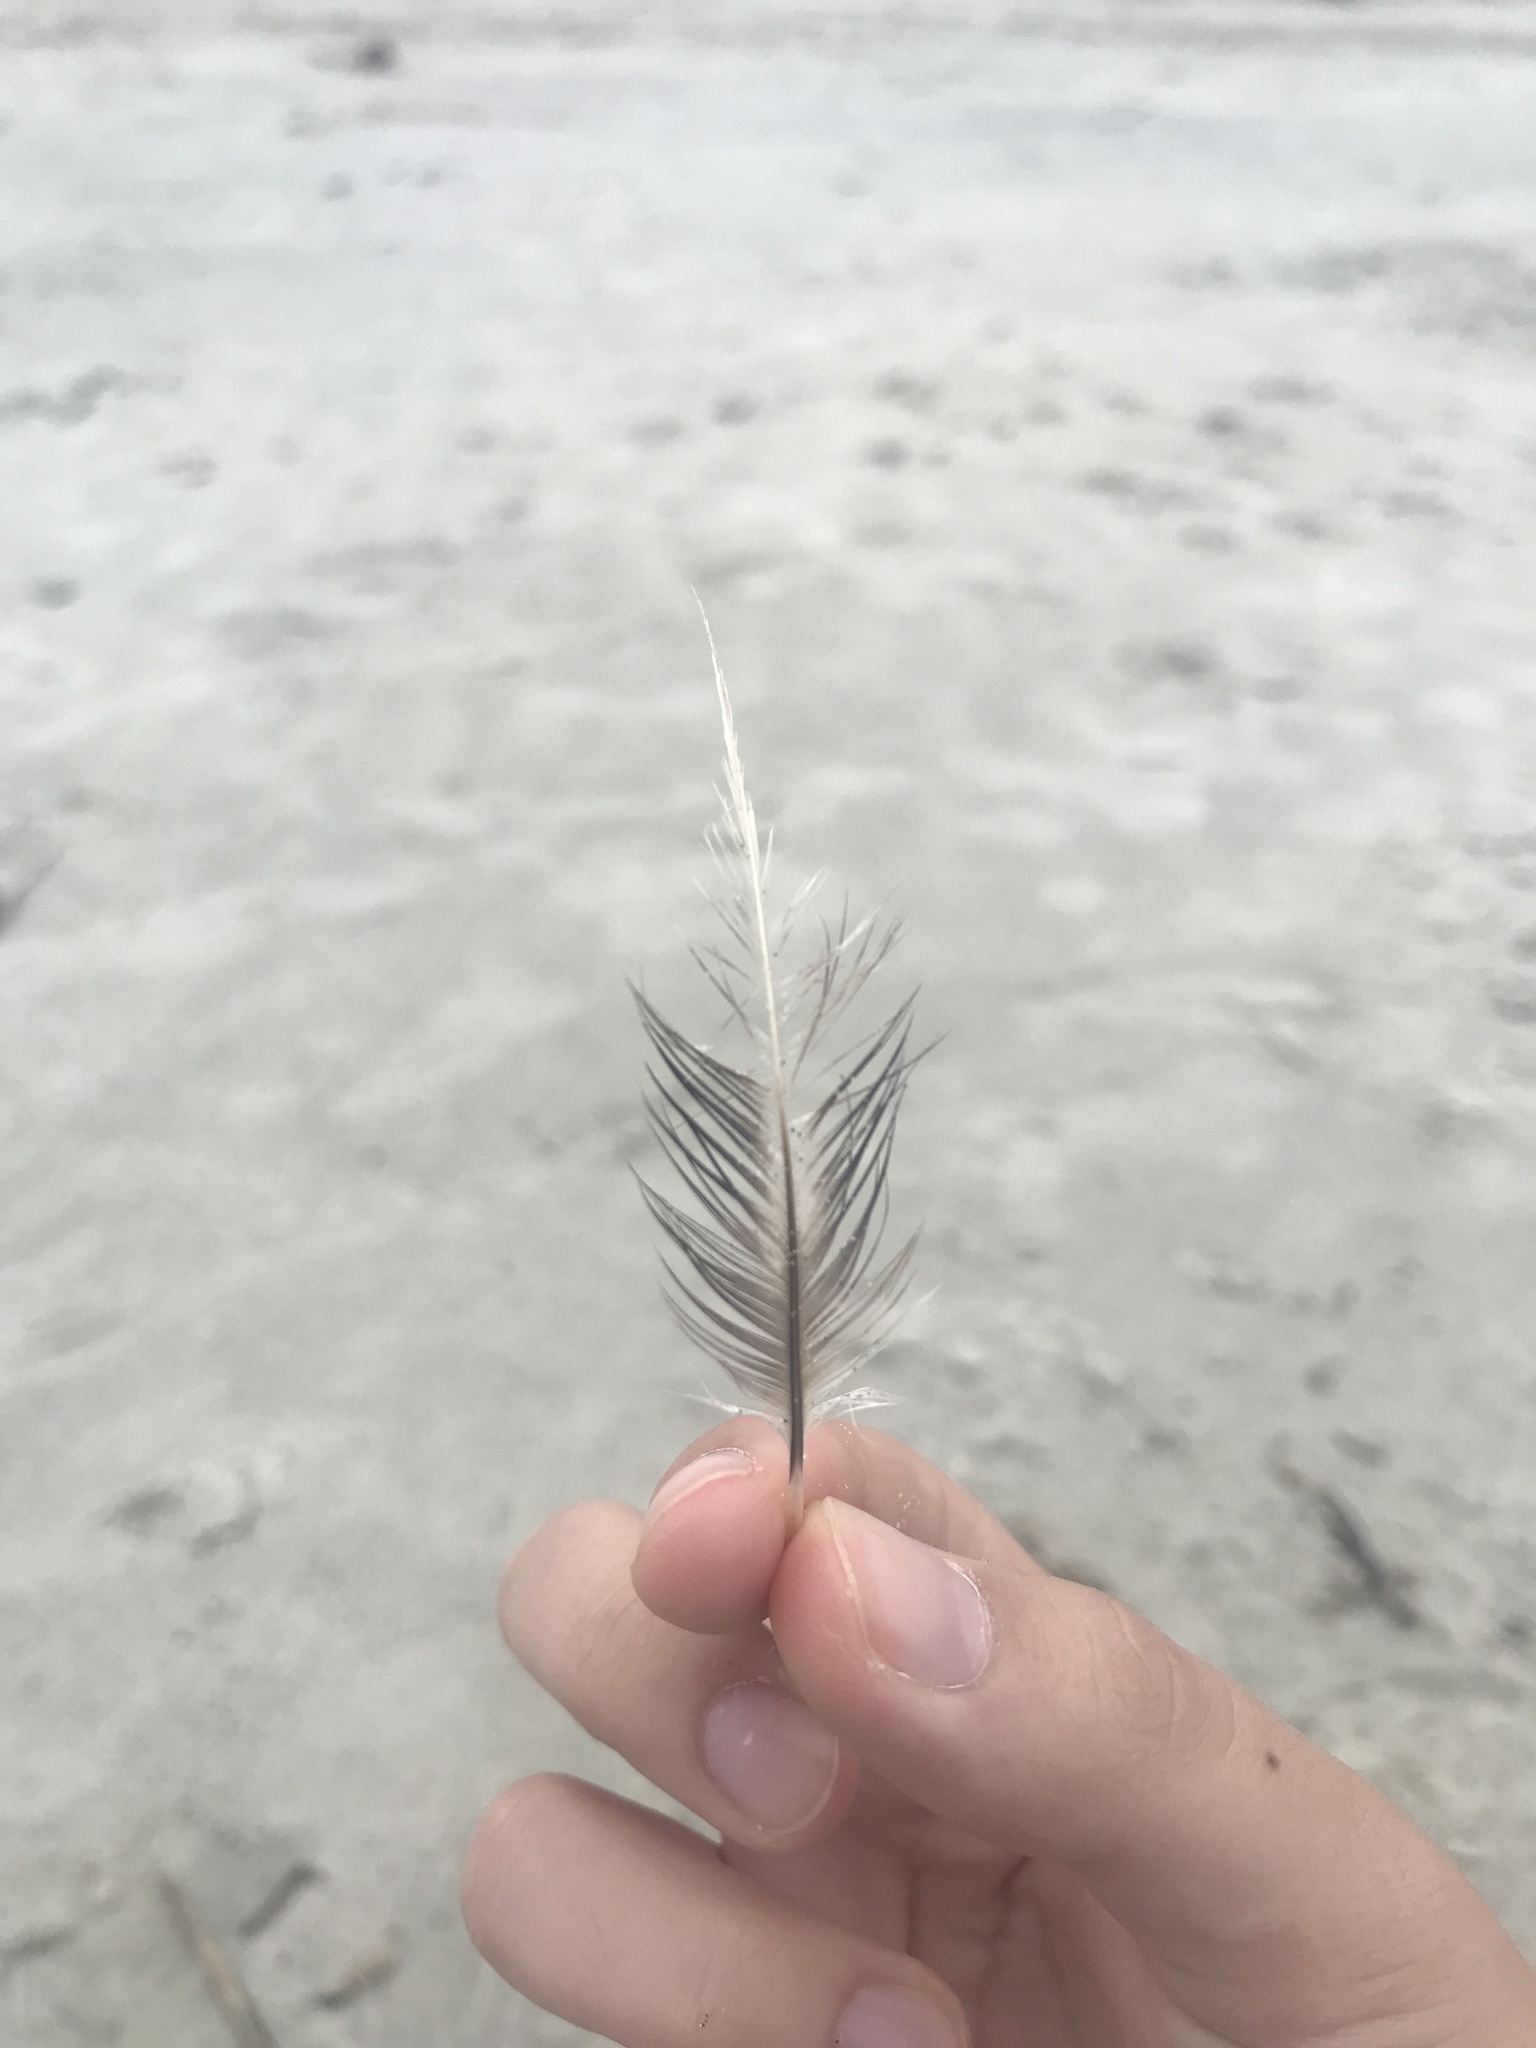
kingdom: Animalia
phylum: Chordata
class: Aves
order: Pelecaniformes
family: Pelecanidae
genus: Pelecanus
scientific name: Pelecanus occidentalis
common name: Brown pelican
